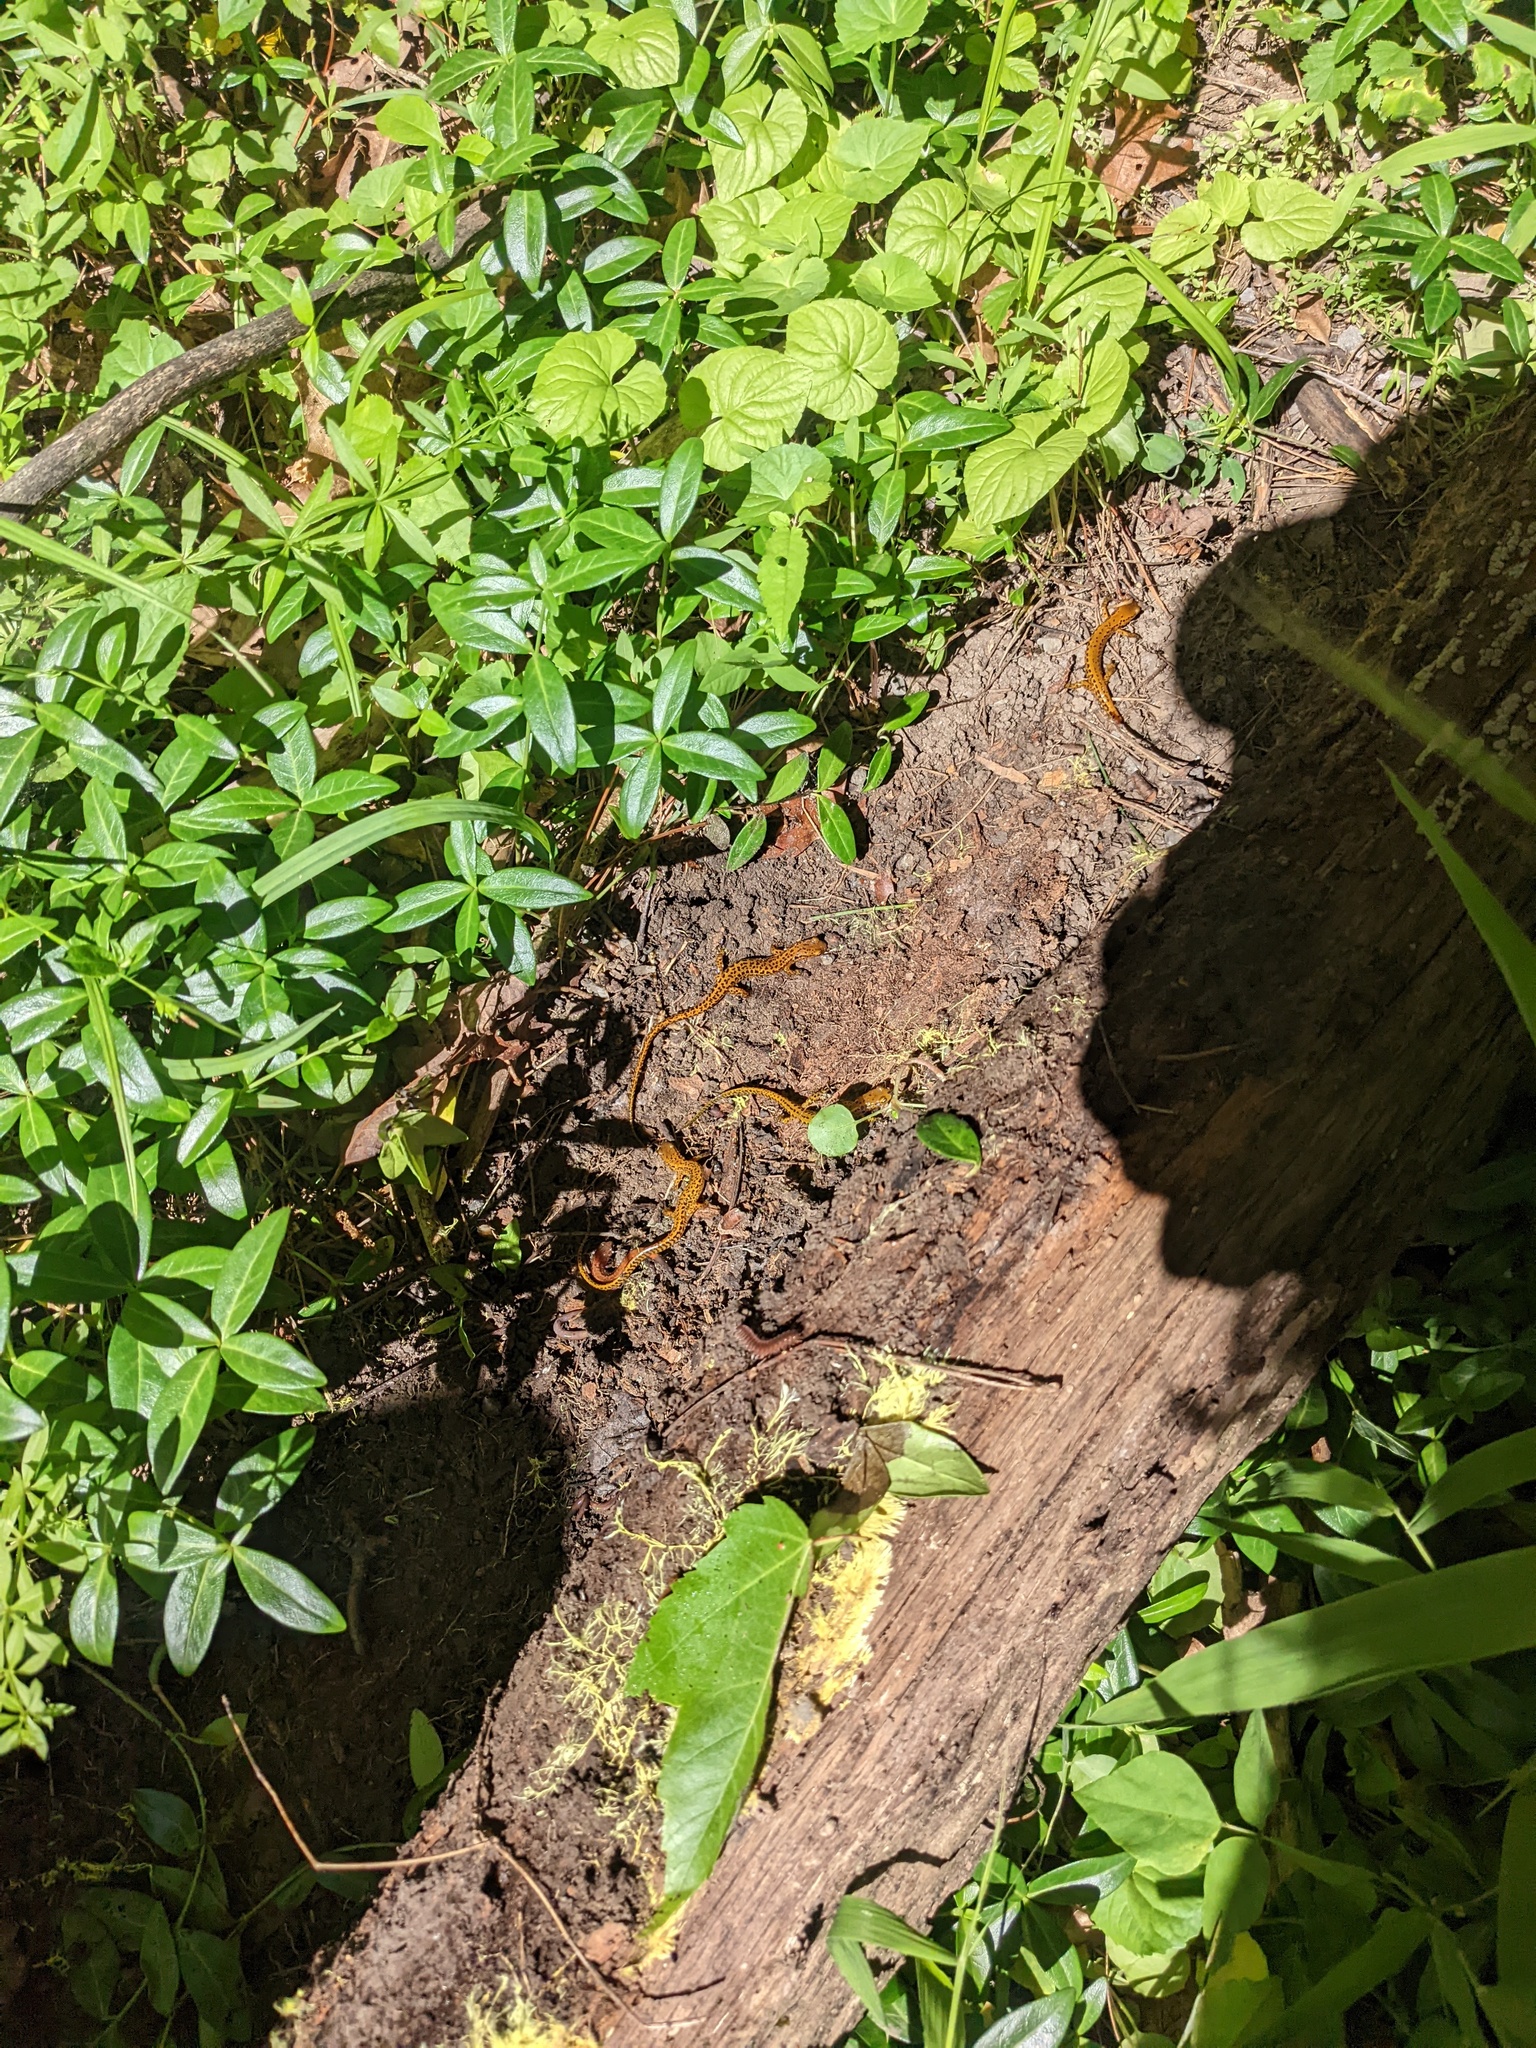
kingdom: Animalia
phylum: Chordata
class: Amphibia
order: Caudata
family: Plethodontidae
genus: Eurycea
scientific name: Eurycea longicauda
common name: Long-tailed salamander
